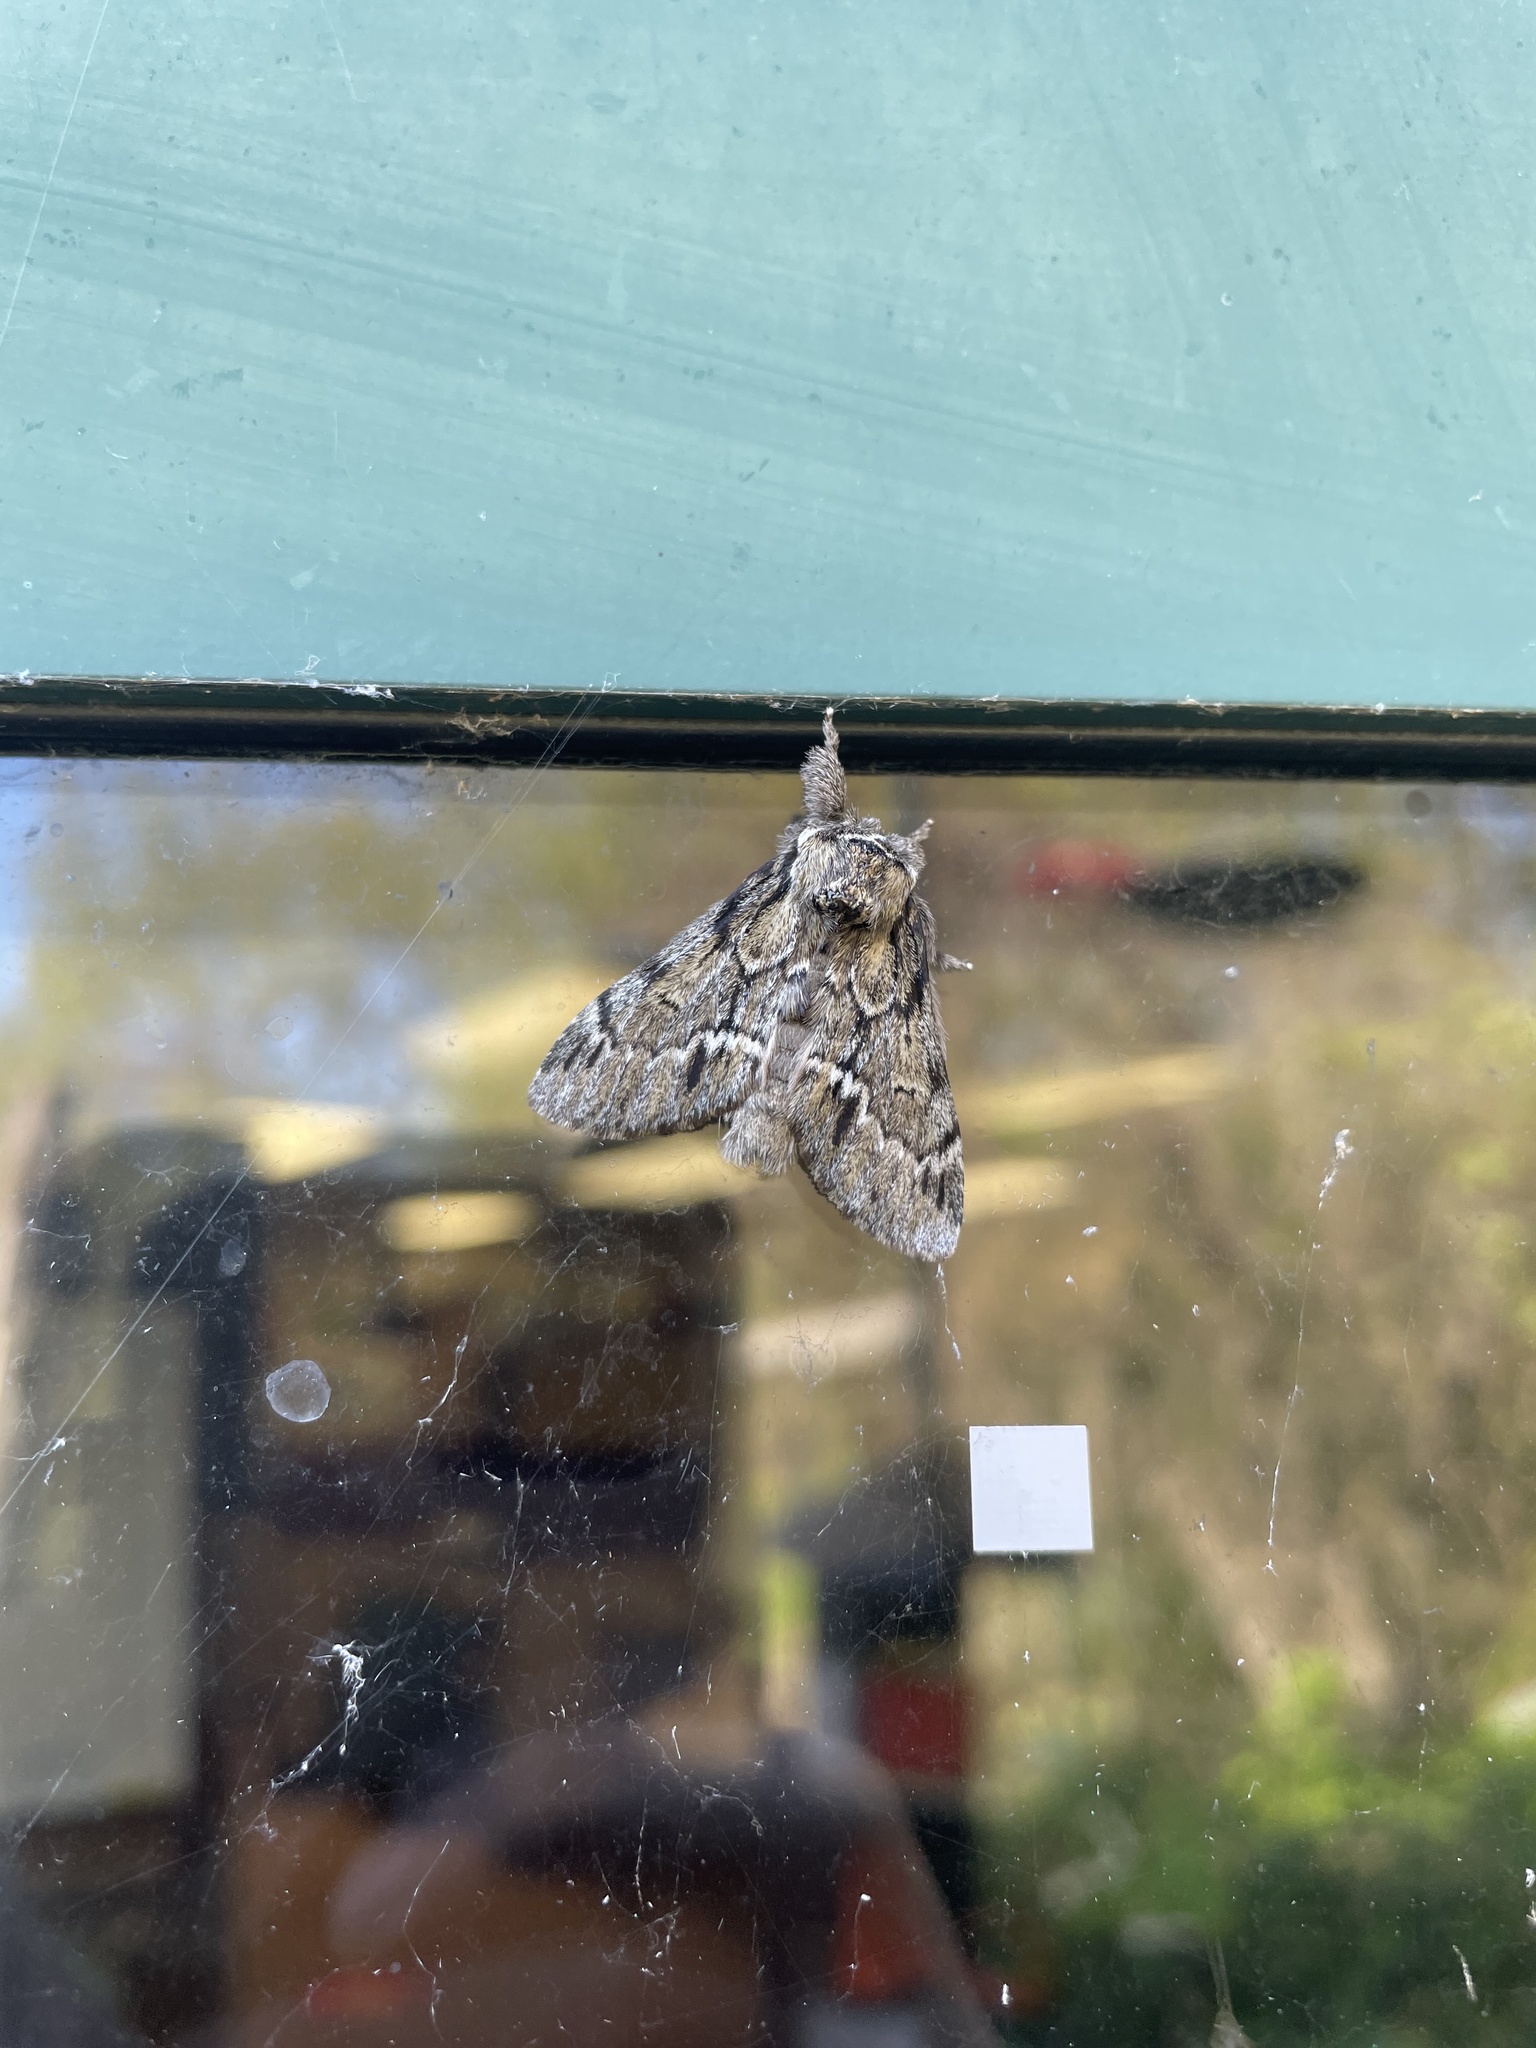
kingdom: Animalia
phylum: Arthropoda
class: Insecta
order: Lepidoptera
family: Notodontidae
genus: Paraeschra
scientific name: Paraeschra georgica
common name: Georgian prominent
